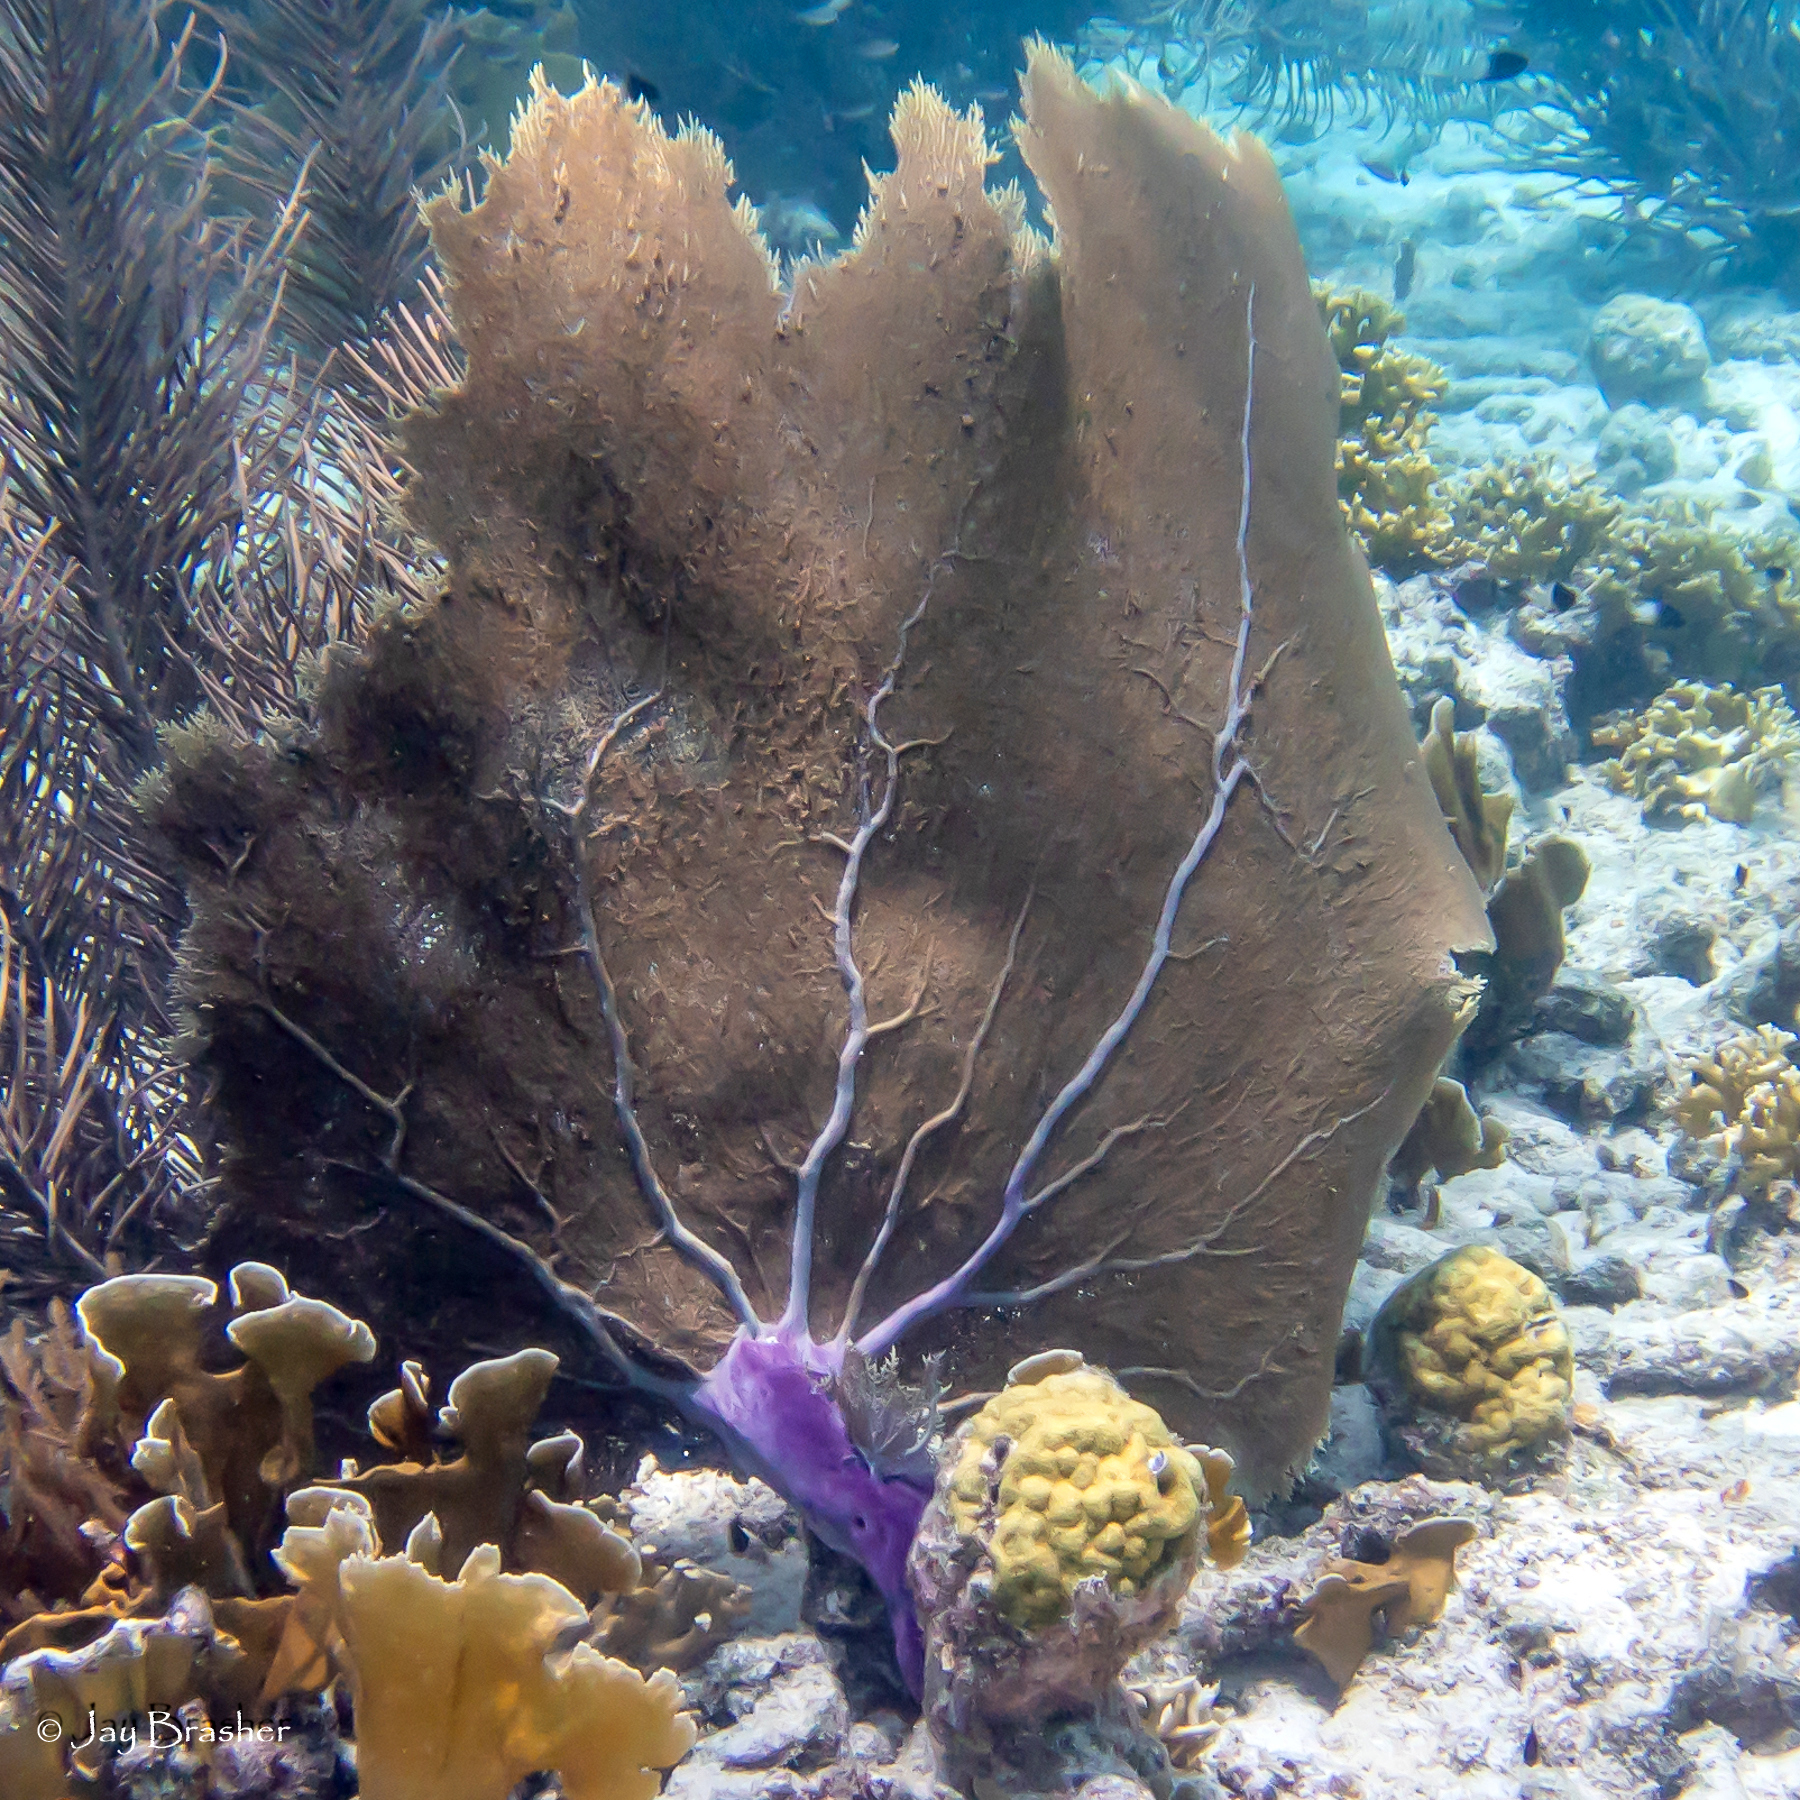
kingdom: Animalia
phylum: Cnidaria
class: Anthozoa
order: Malacalcyonacea
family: Gorgoniidae
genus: Gorgonia
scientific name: Gorgonia ventalina
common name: Common sea fan
